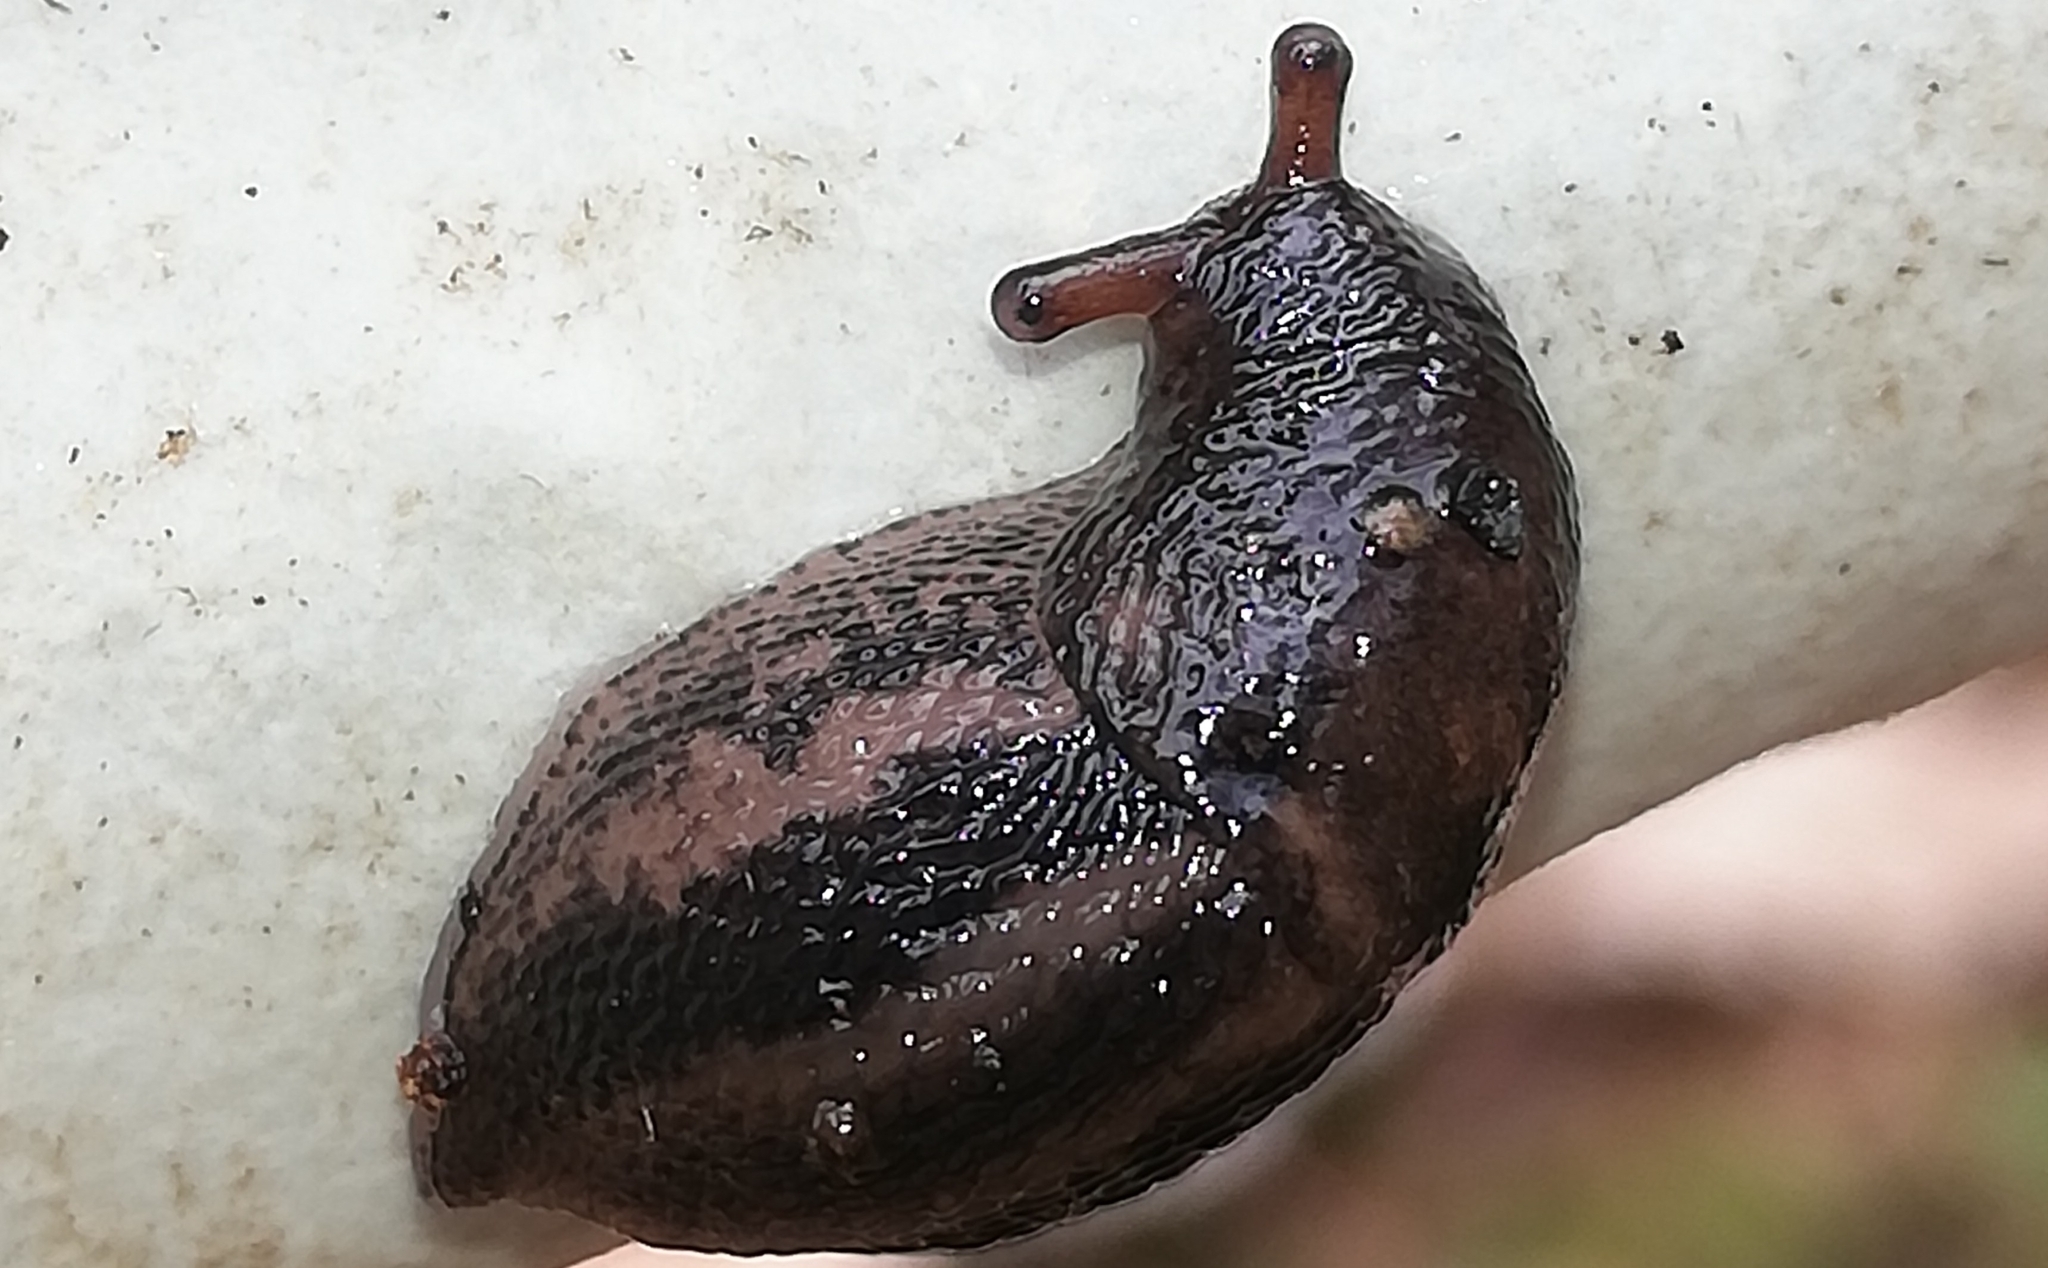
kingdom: Animalia
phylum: Mollusca
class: Gastropoda
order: Stylommatophora
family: Limacidae
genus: Limax
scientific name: Limax maximus
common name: Great grey slug
